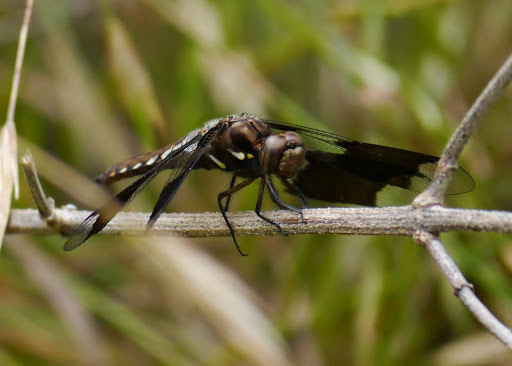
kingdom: Animalia
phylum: Arthropoda
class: Insecta
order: Odonata
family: Libellulidae
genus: Plathemis
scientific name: Plathemis lydia
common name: Common whitetail
